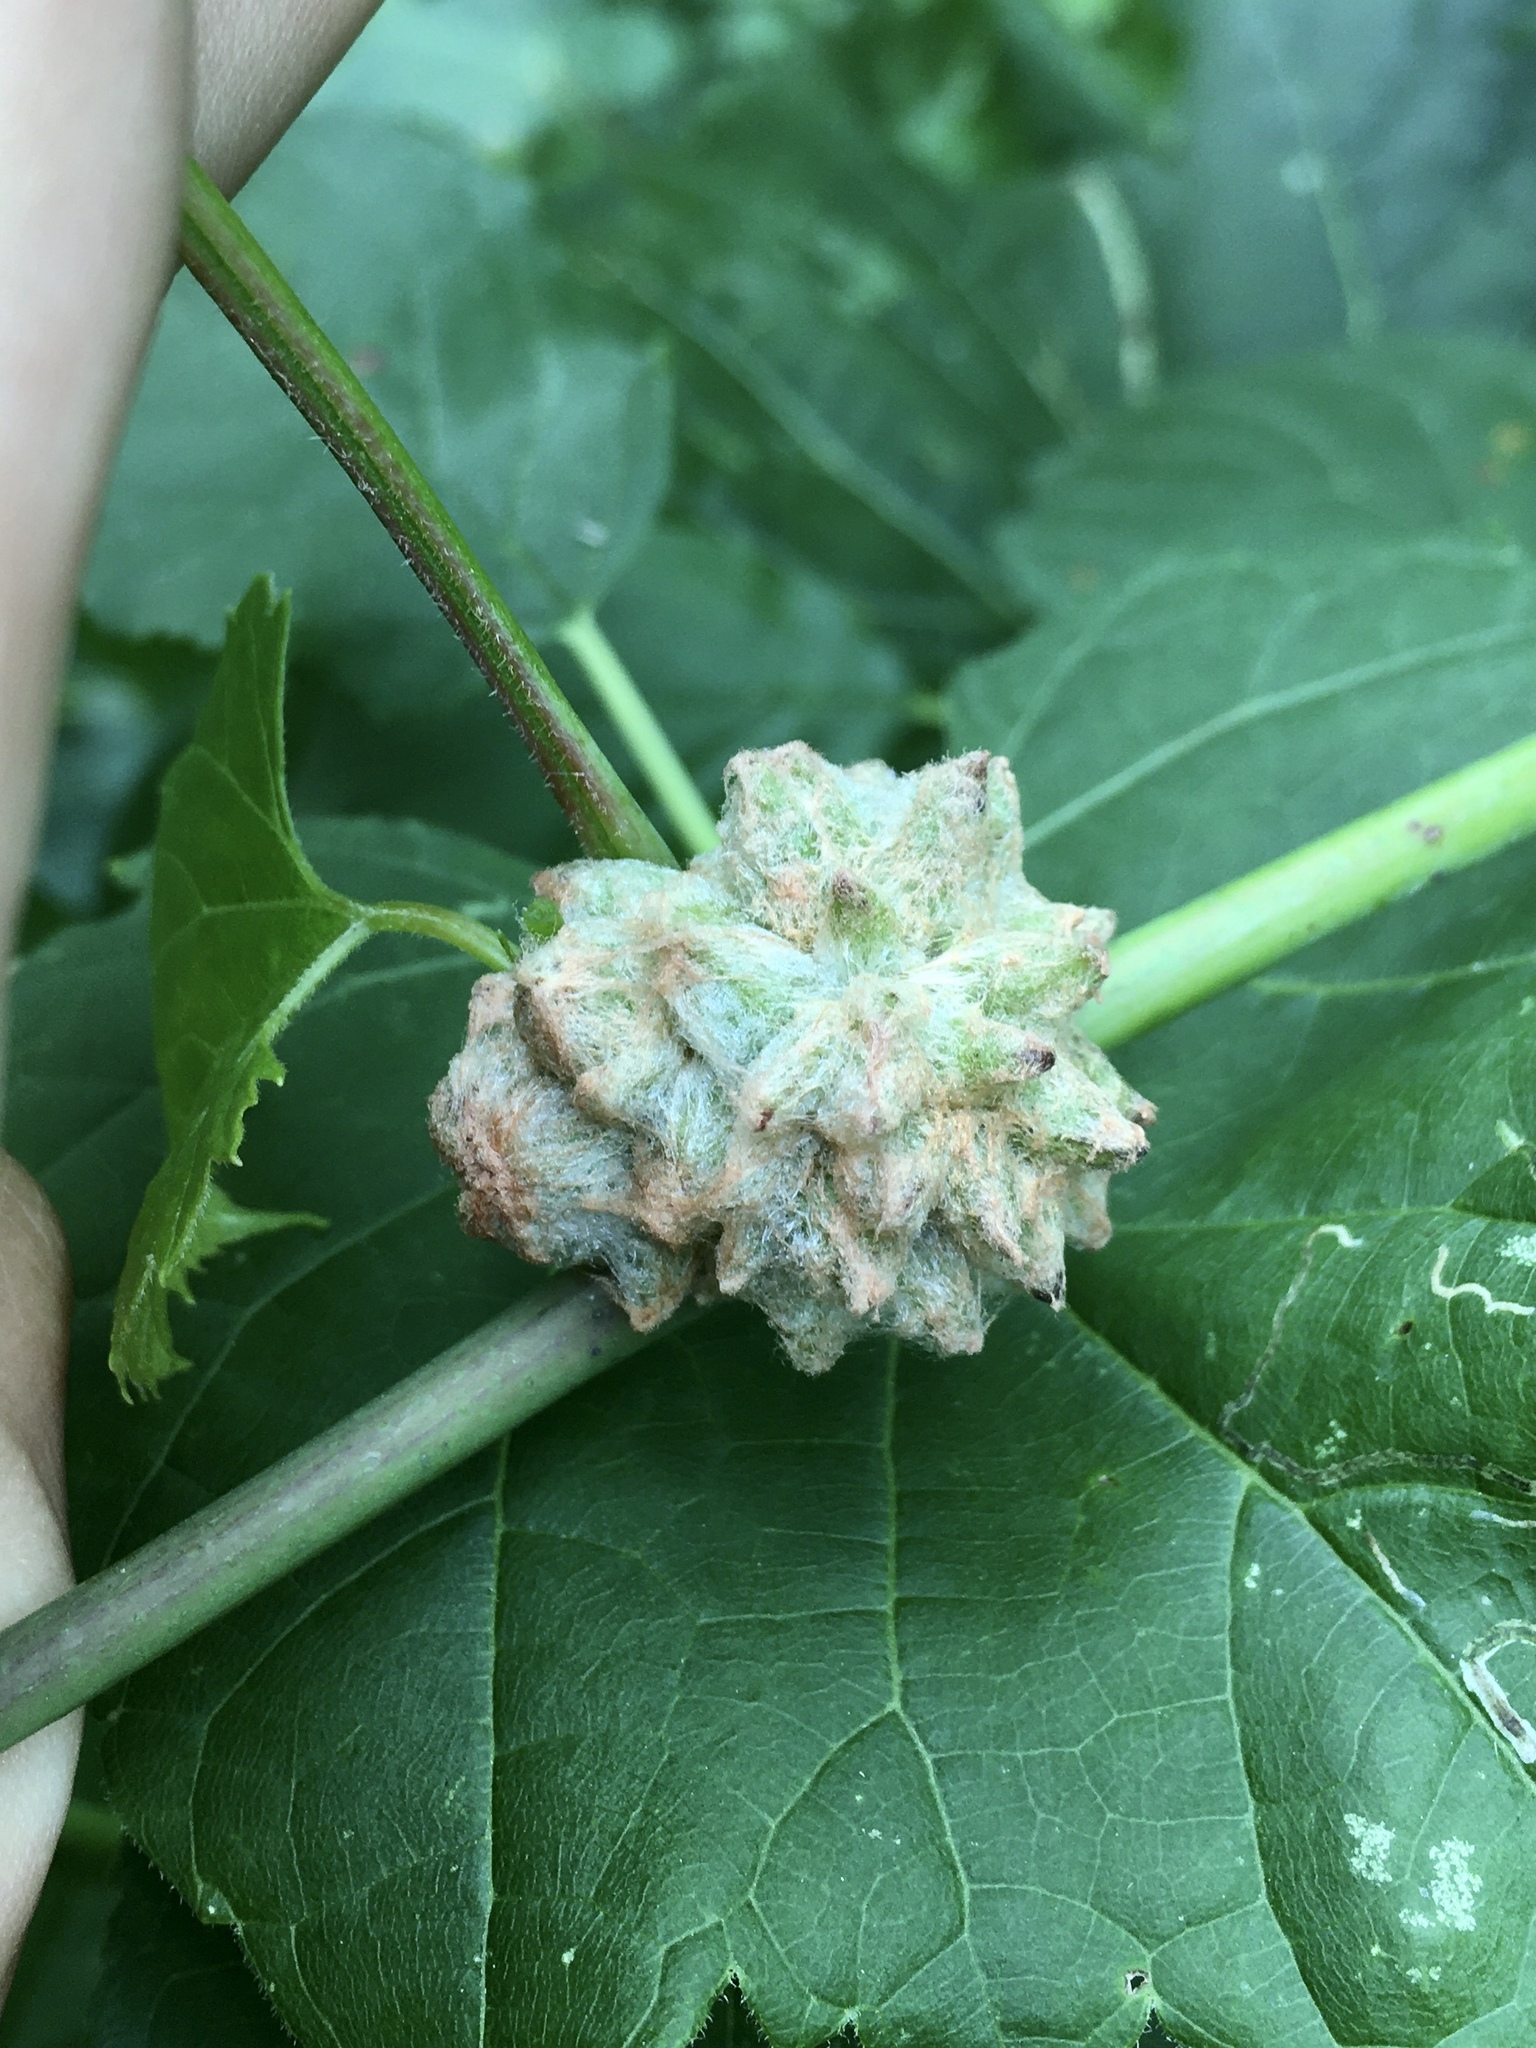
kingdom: Animalia
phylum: Arthropoda
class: Insecta
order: Diptera
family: Cecidomyiidae
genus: Ampelomyia
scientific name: Ampelomyia vitiscoryloides
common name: Grape filbert gall
